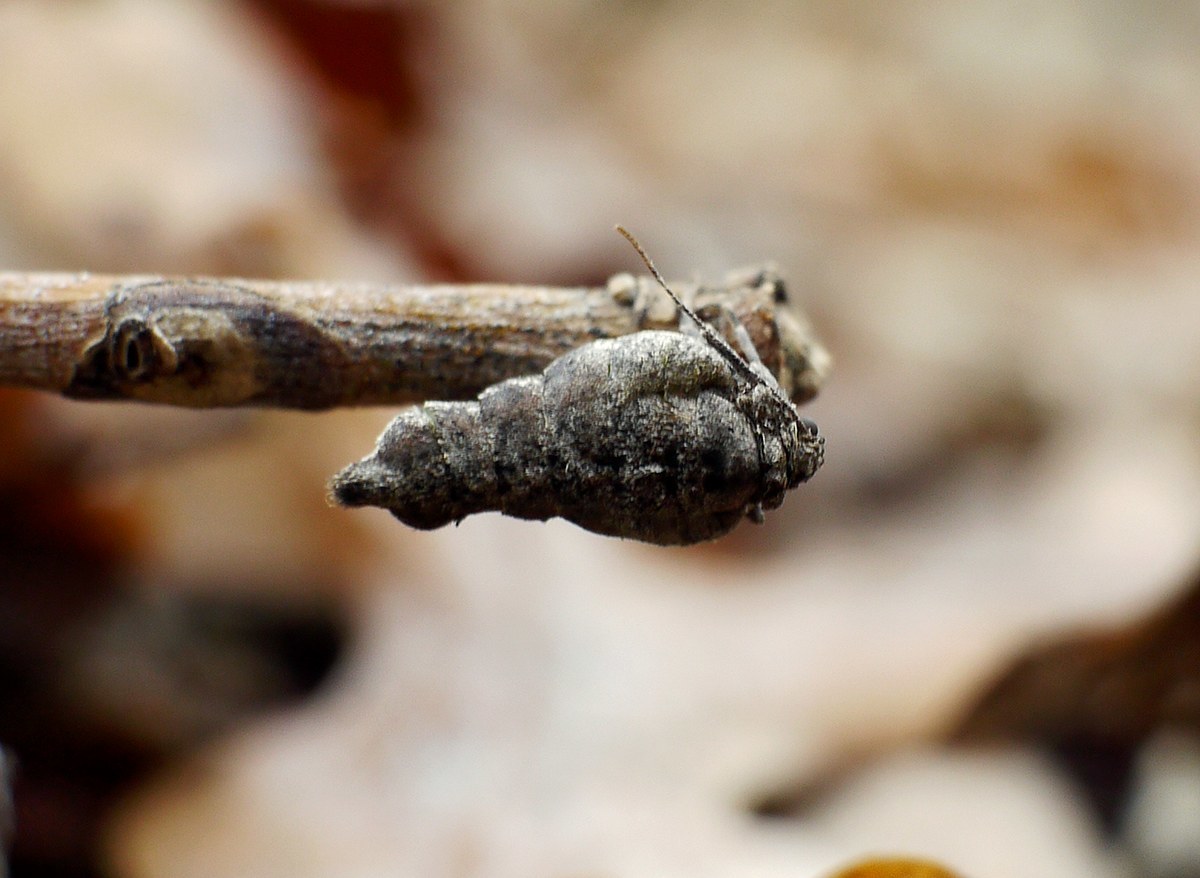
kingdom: Animalia
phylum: Arthropoda
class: Insecta
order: Lepidoptera
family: Geometridae
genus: Agriopis
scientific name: Agriopis bajaria
